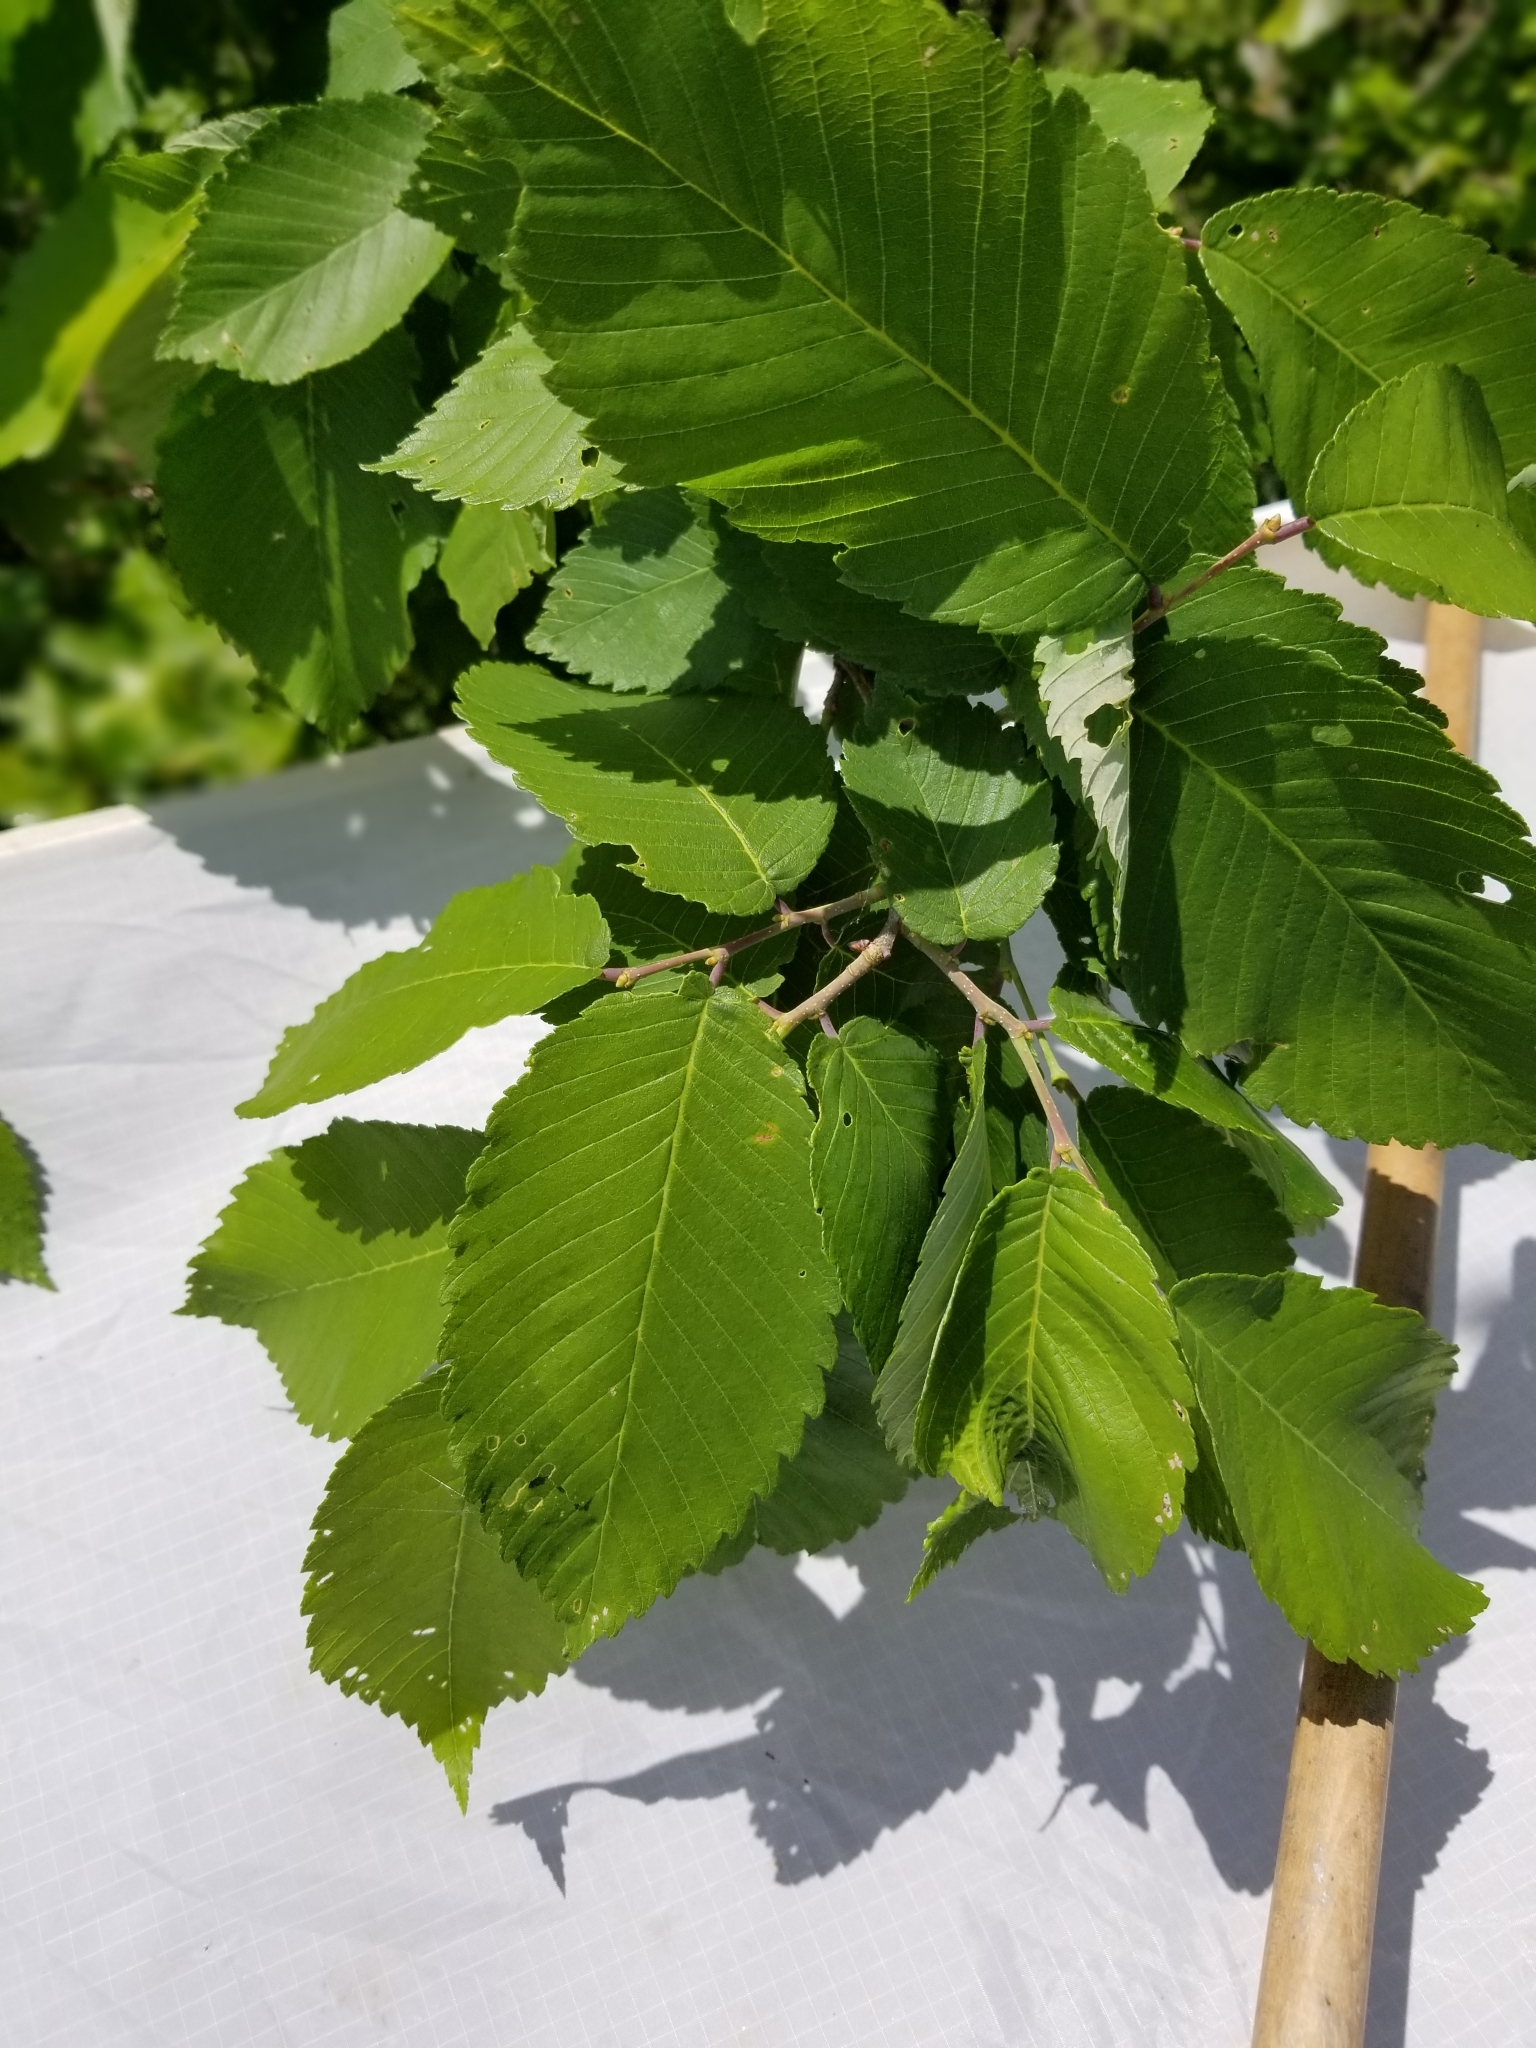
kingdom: Plantae
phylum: Tracheophyta
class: Magnoliopsida
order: Rosales
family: Ulmaceae
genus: Ulmus
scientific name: Ulmus thomasii
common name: Rock elm
